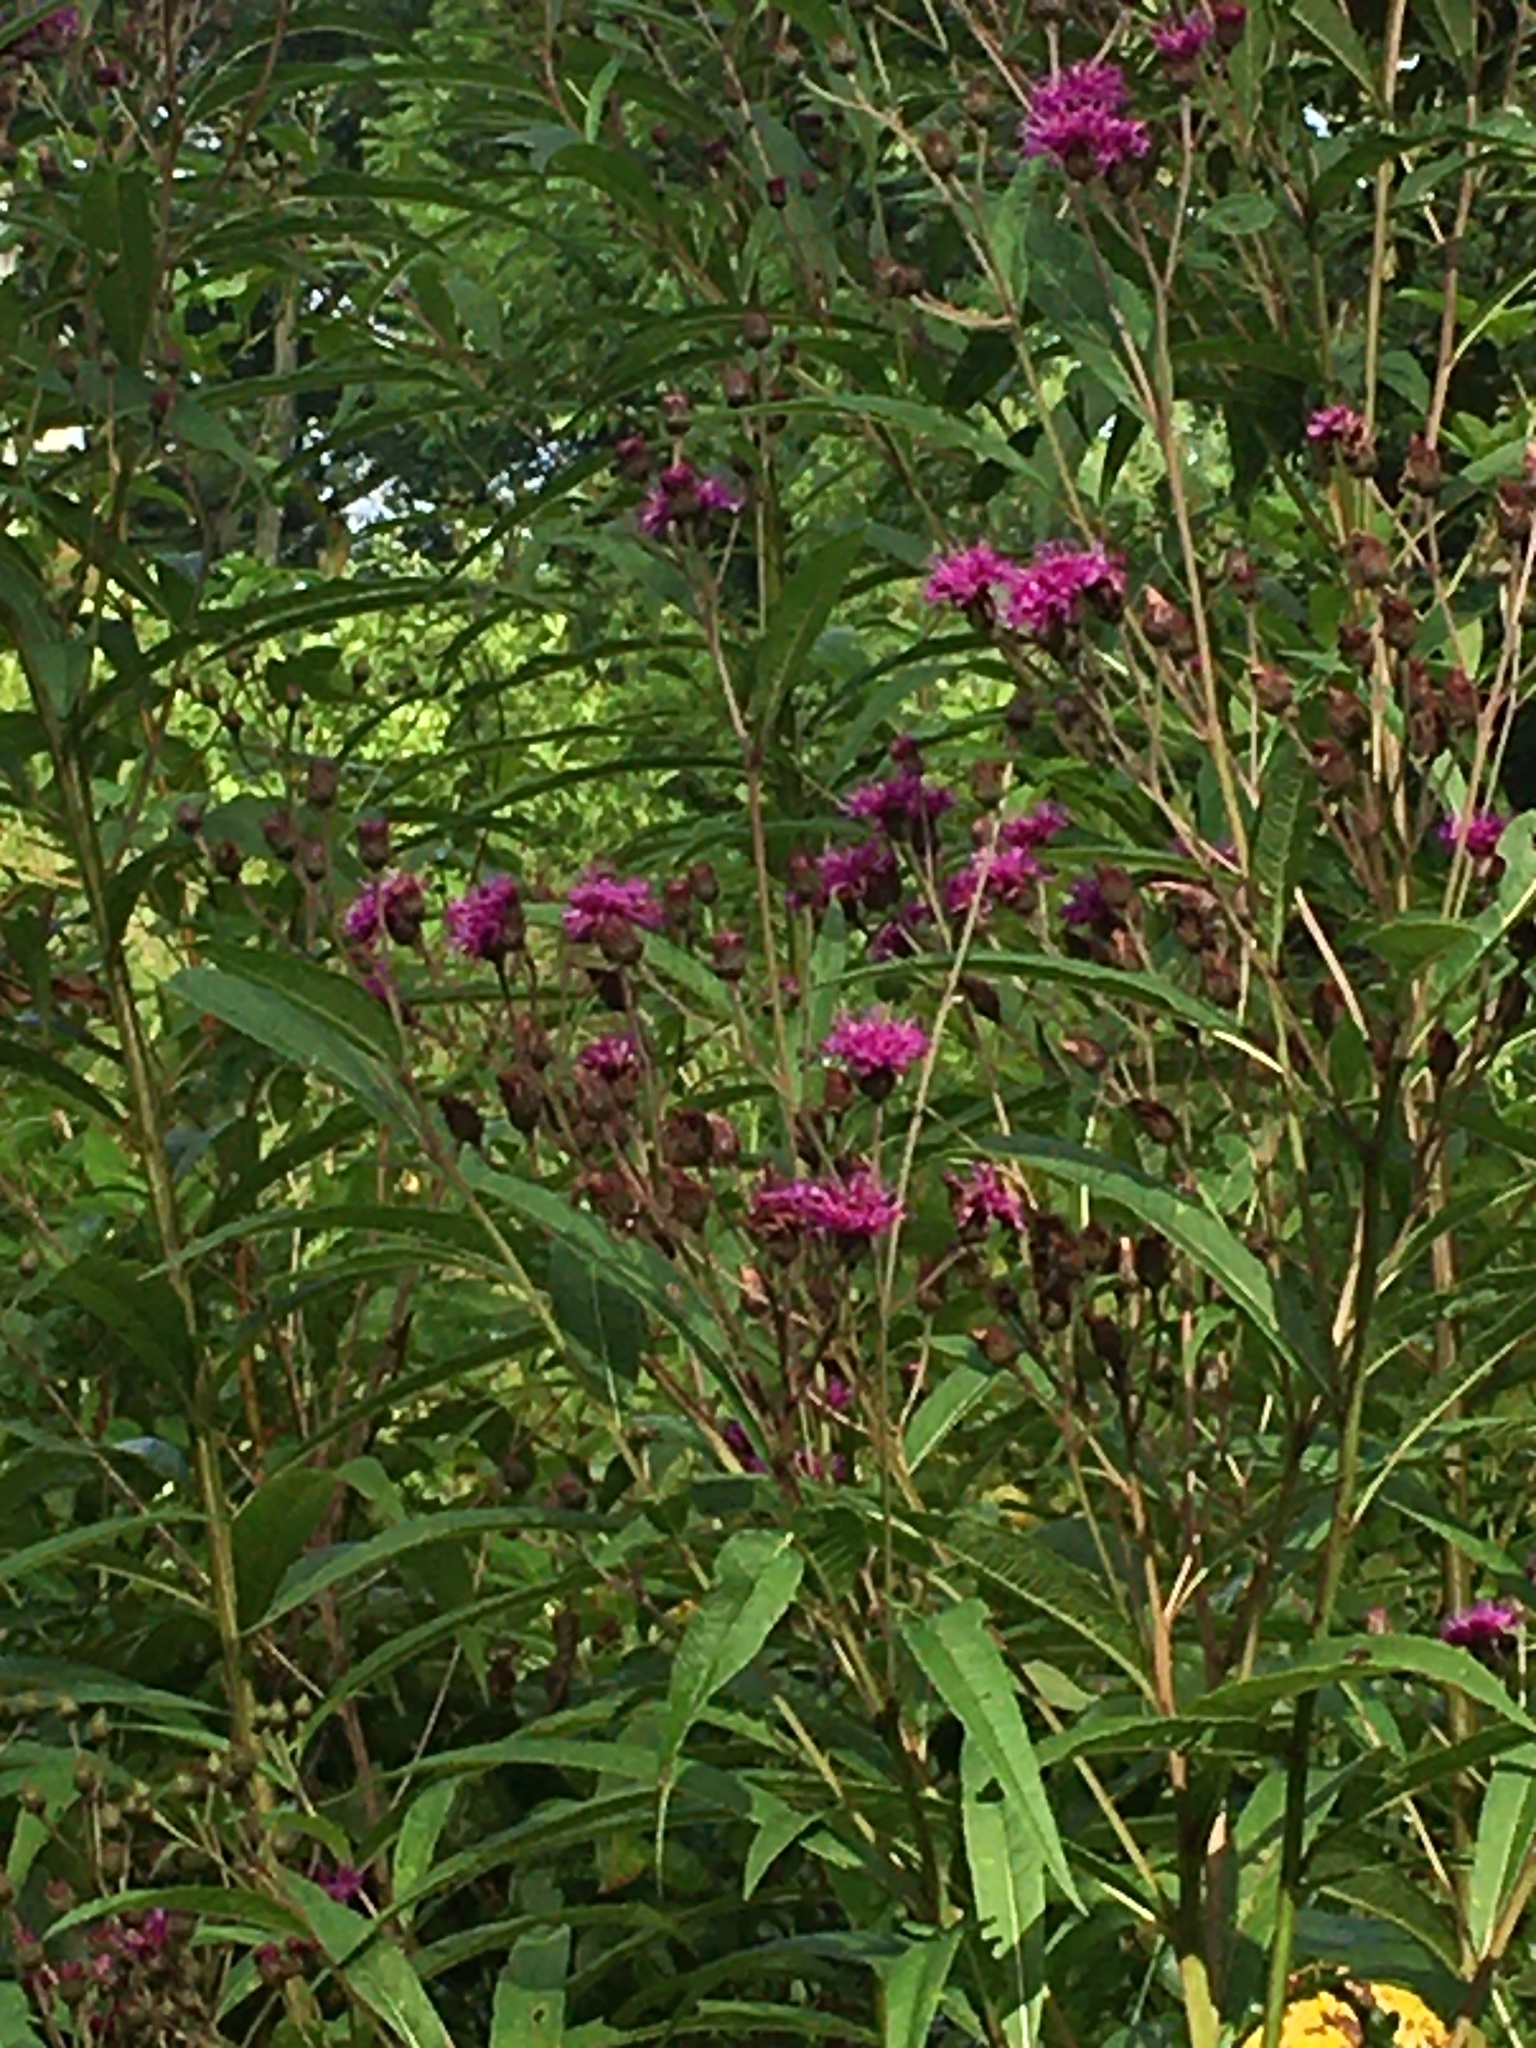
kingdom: Plantae
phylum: Tracheophyta
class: Magnoliopsida
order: Asterales
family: Asteraceae
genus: Vernonia
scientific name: Vernonia noveboracensis
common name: New york ironweed
